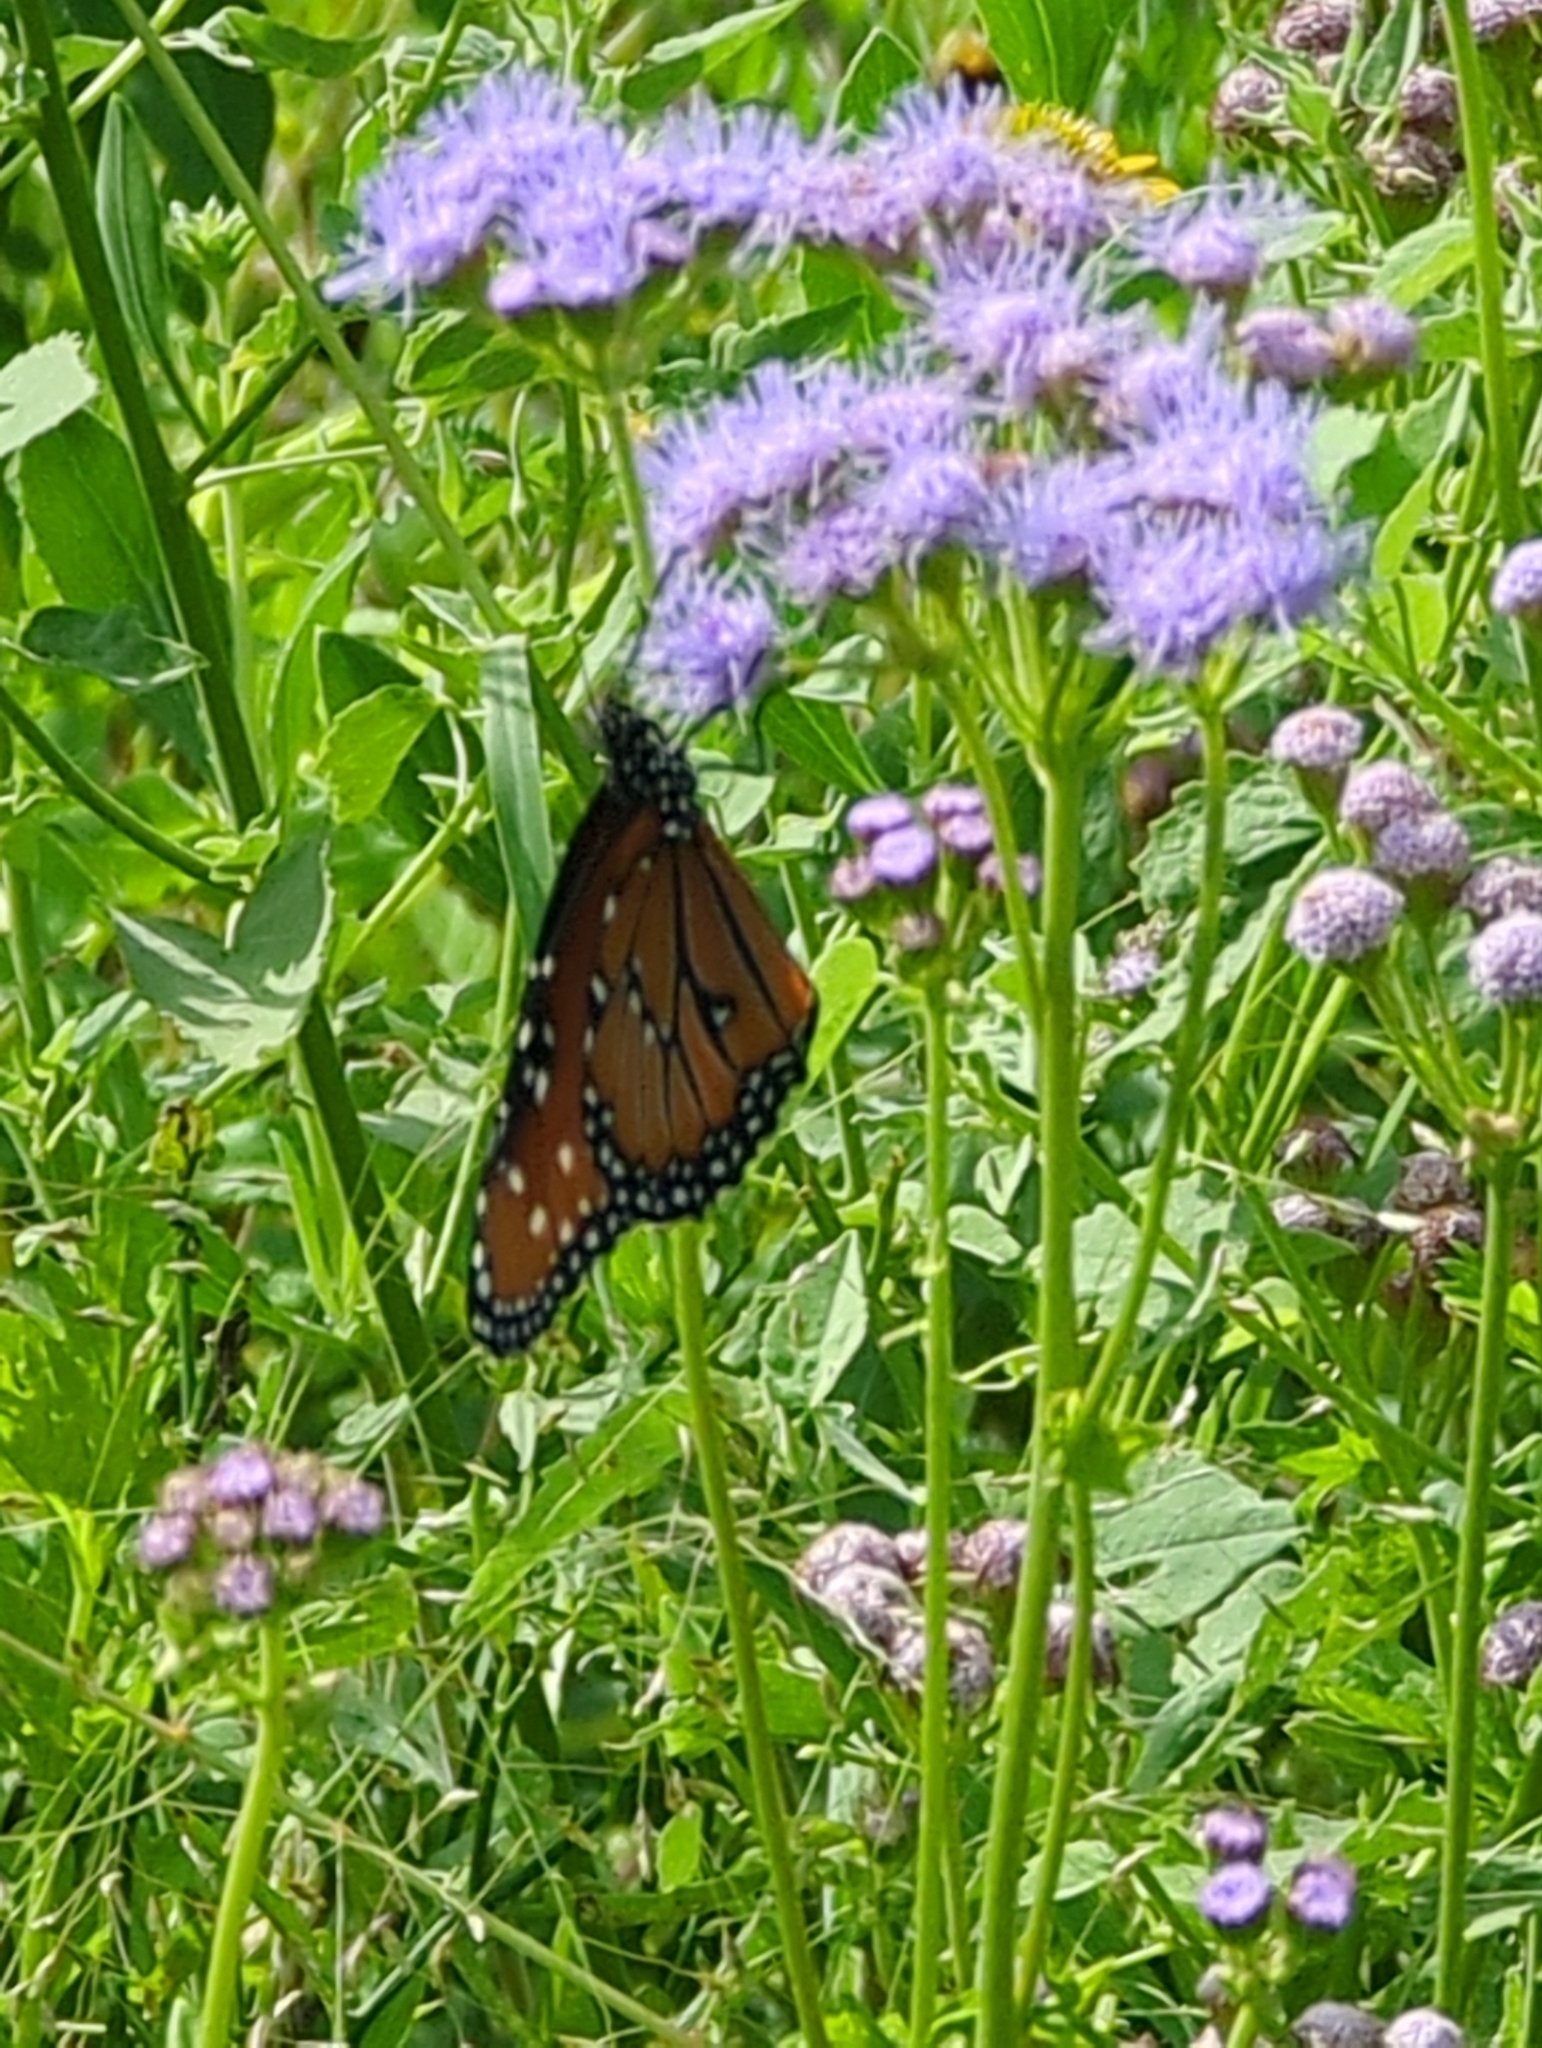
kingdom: Animalia
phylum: Arthropoda
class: Insecta
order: Lepidoptera
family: Nymphalidae
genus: Danaus
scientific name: Danaus gilippus
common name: Queen
